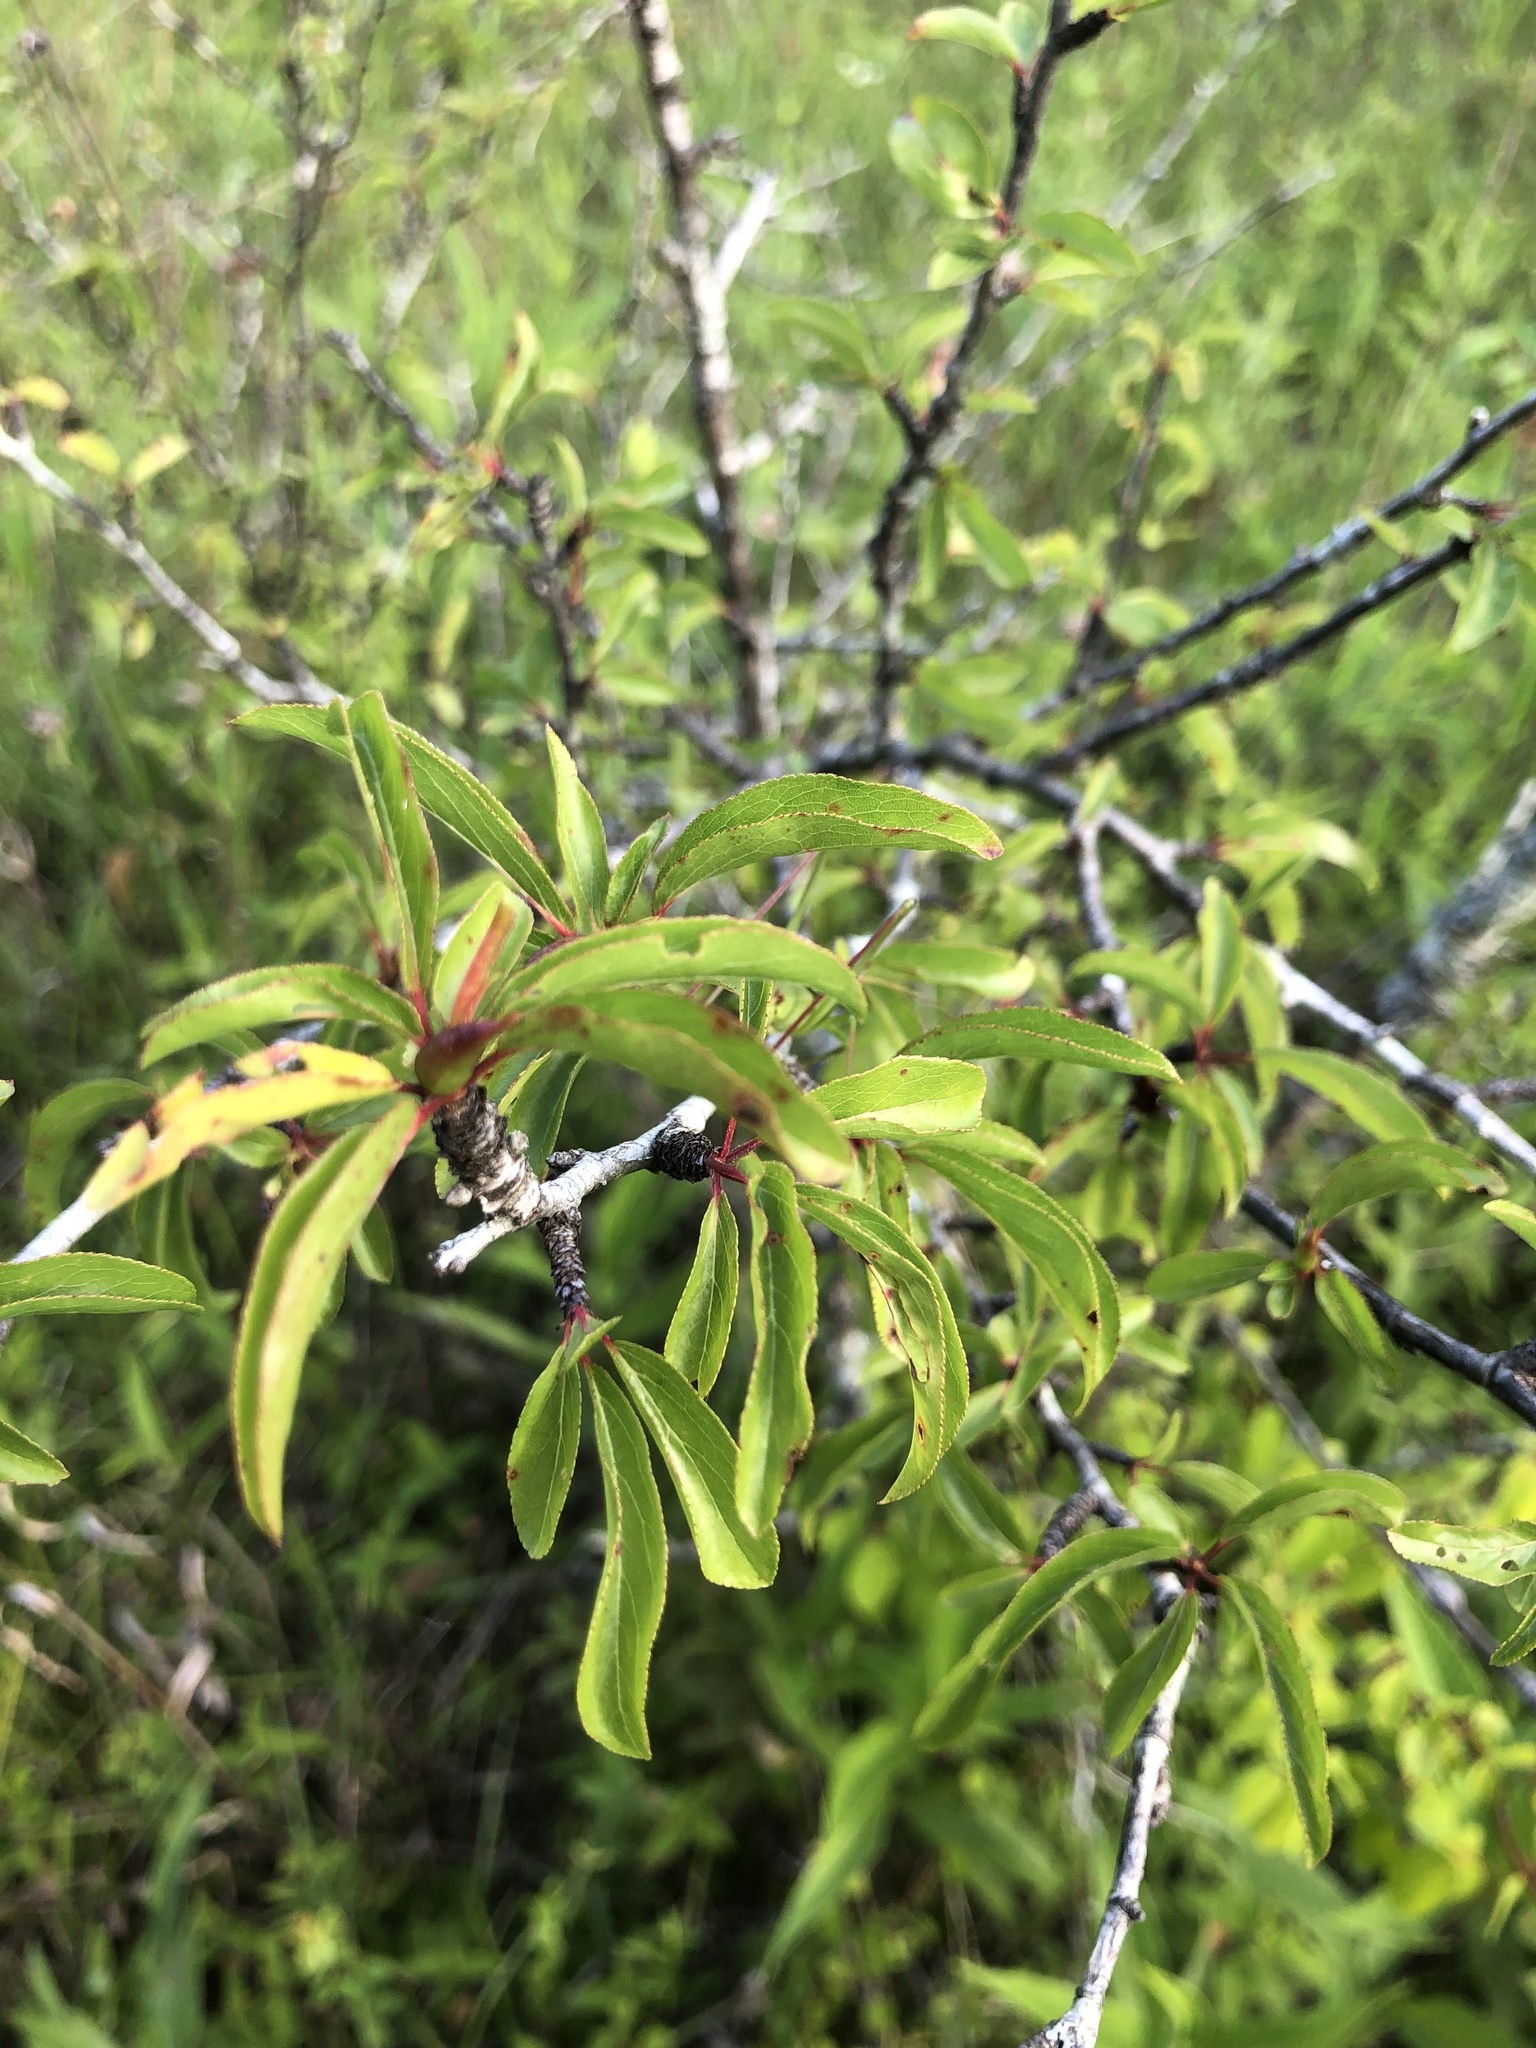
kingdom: Plantae
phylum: Tracheophyta
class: Magnoliopsida
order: Rosales
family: Rosaceae
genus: Prunus
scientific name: Prunus angustifolia
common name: Cherokee plum
